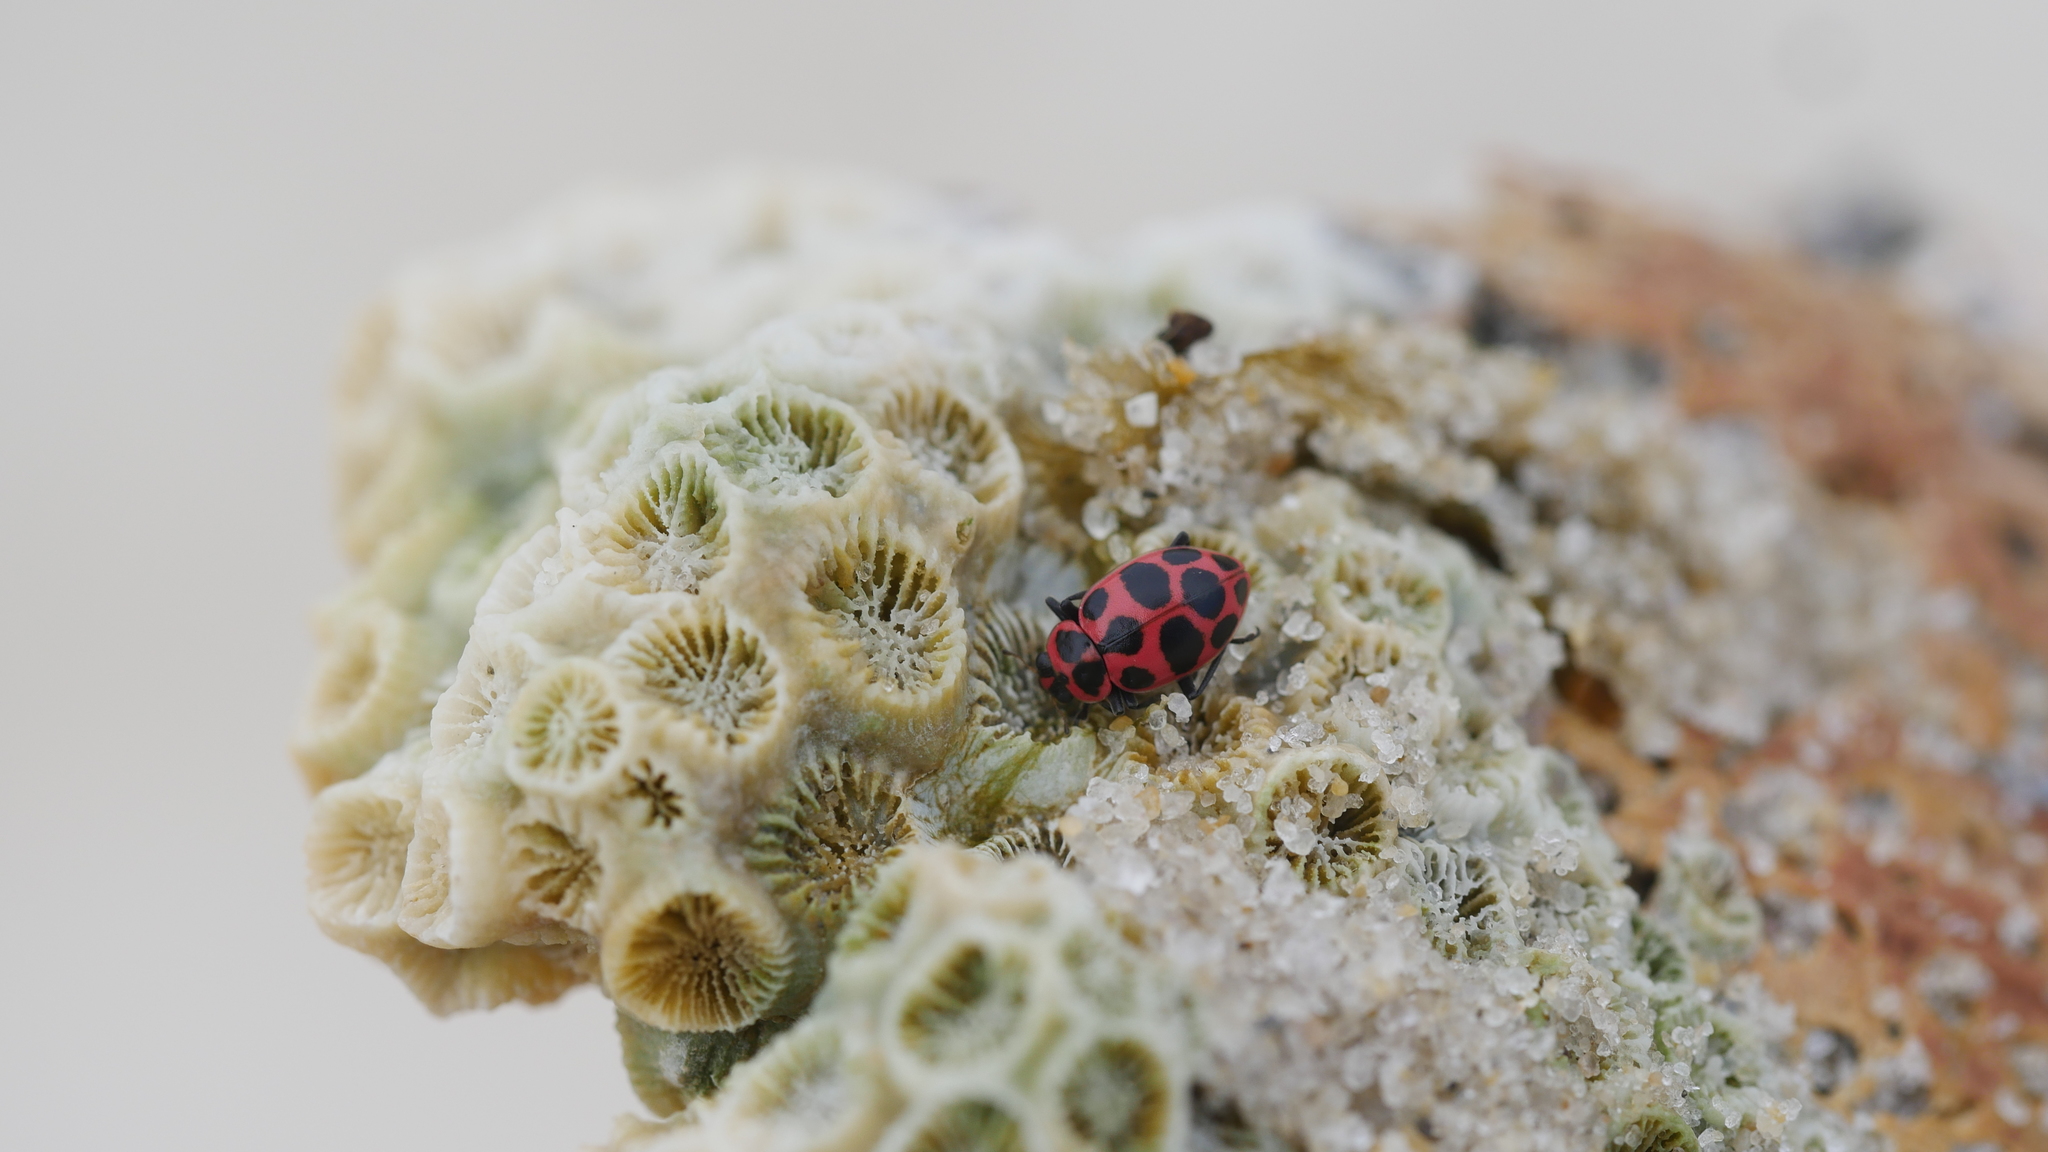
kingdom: Animalia
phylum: Arthropoda
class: Insecta
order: Coleoptera
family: Coccinellidae
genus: Coleomegilla
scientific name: Coleomegilla maculata
